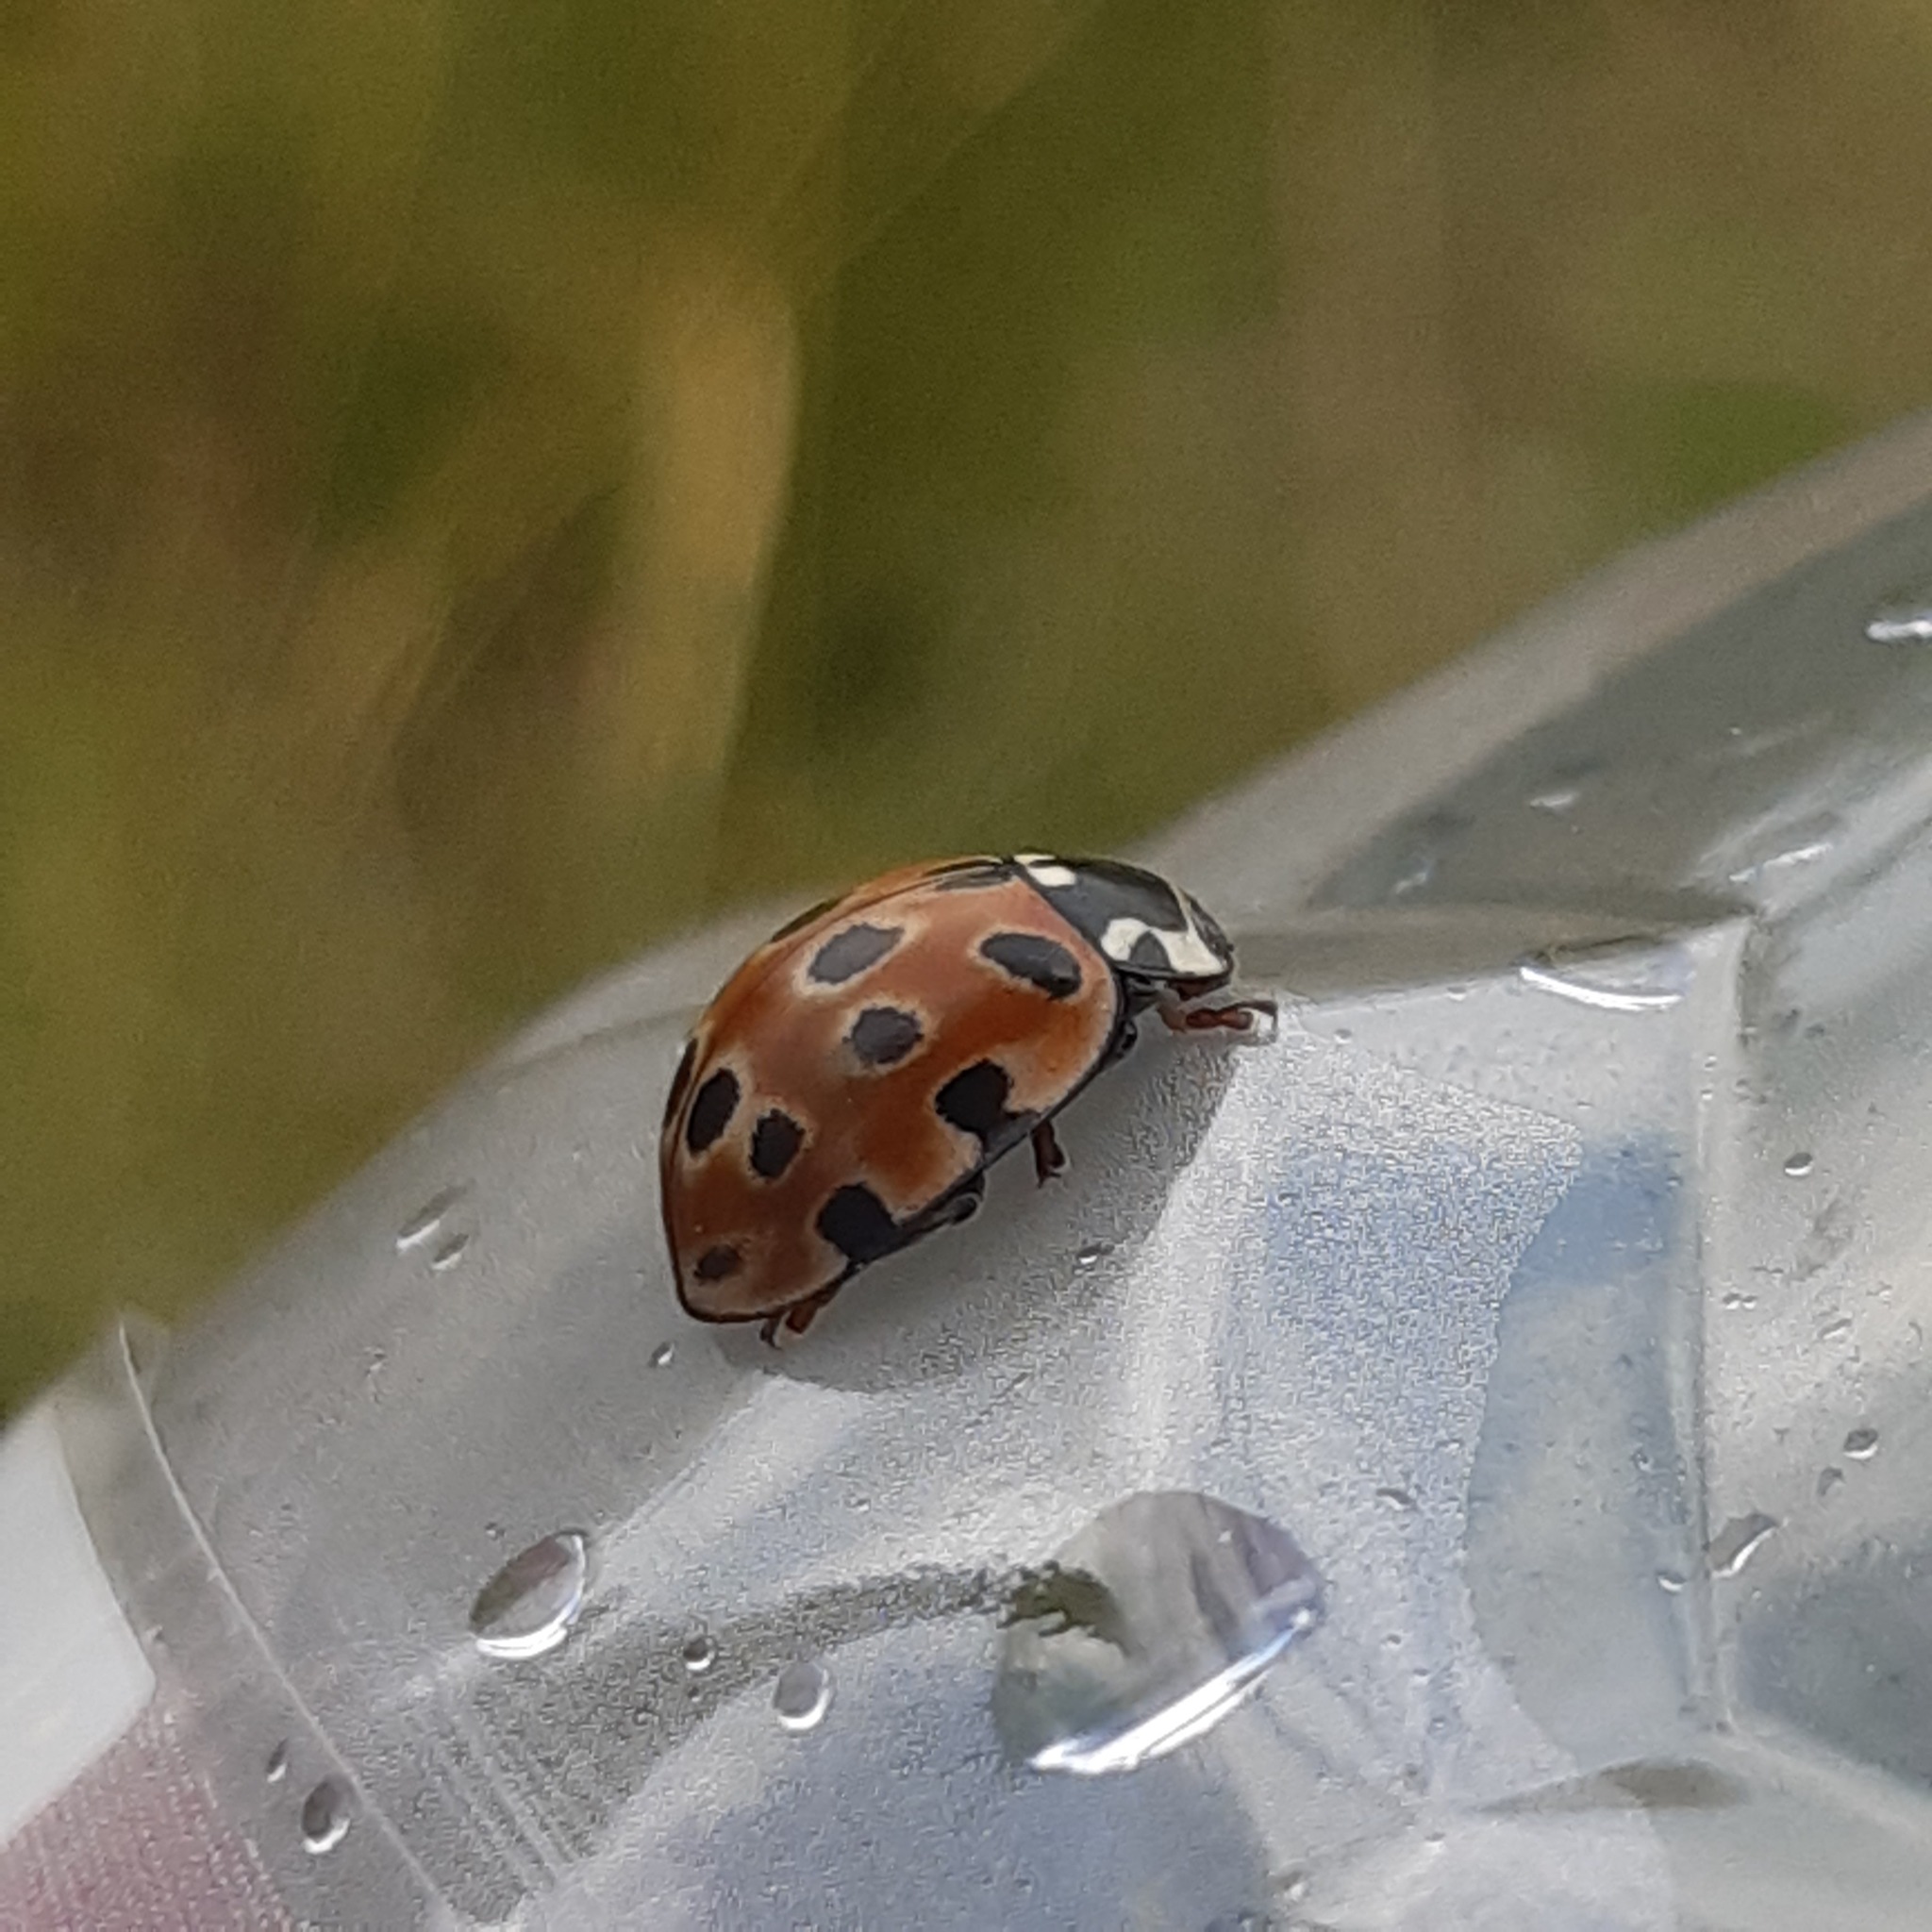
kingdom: Animalia
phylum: Arthropoda
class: Insecta
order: Coleoptera
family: Coccinellidae
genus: Anatis
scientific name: Anatis ocellata
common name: Eyed ladybird
